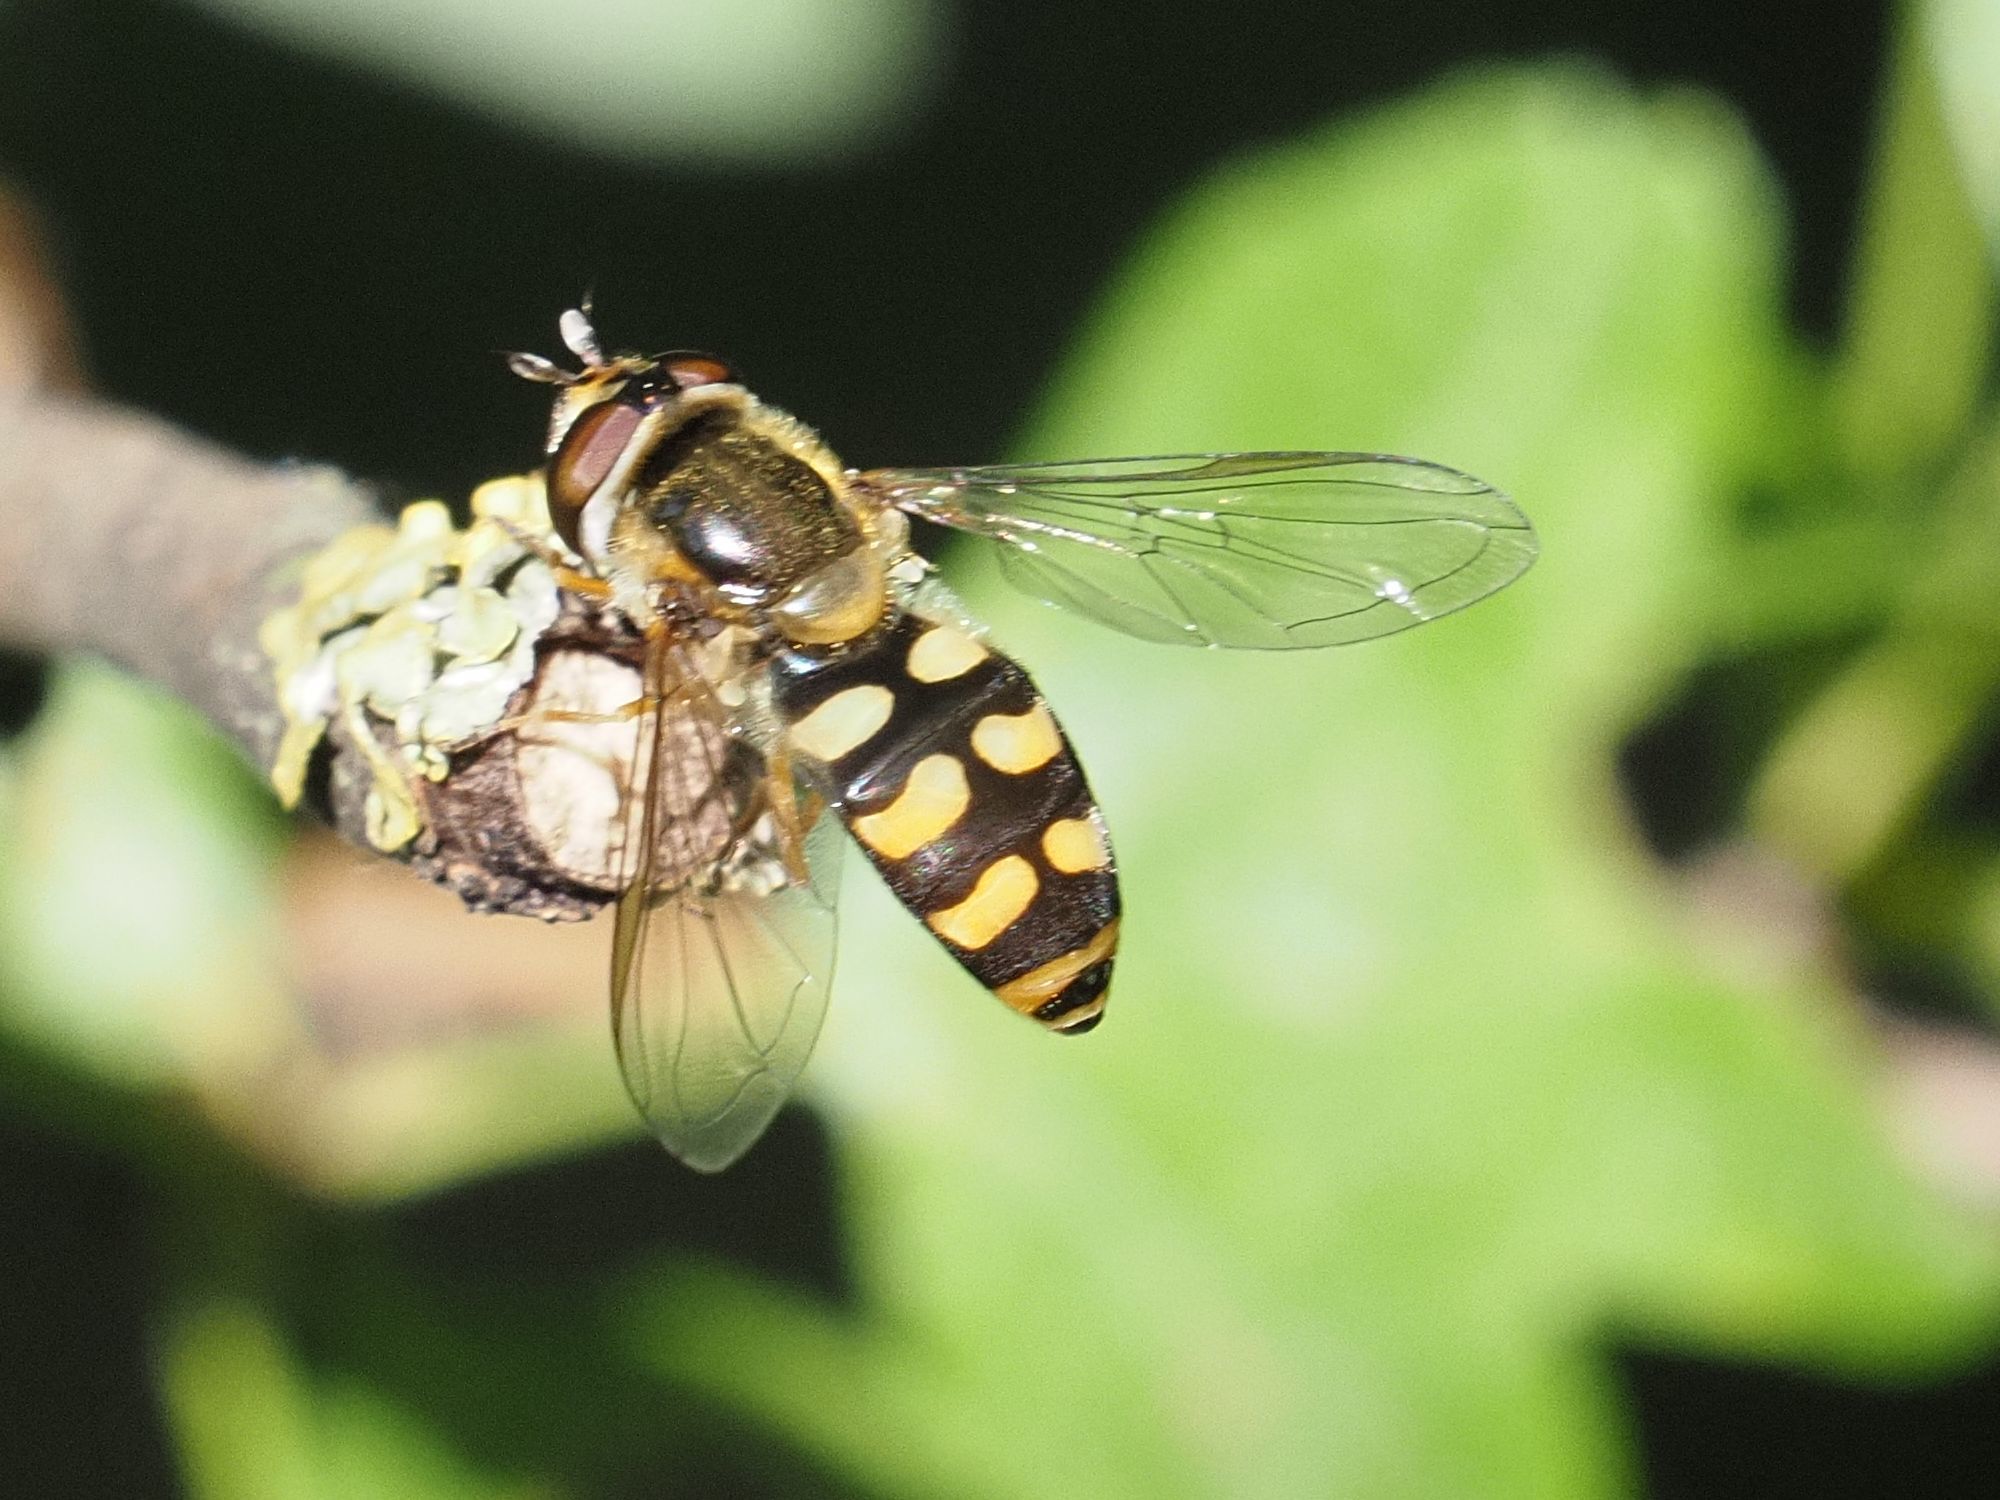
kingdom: Animalia
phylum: Arthropoda
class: Insecta
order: Diptera
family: Syrphidae
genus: Eupeodes
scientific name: Eupeodes luniger
